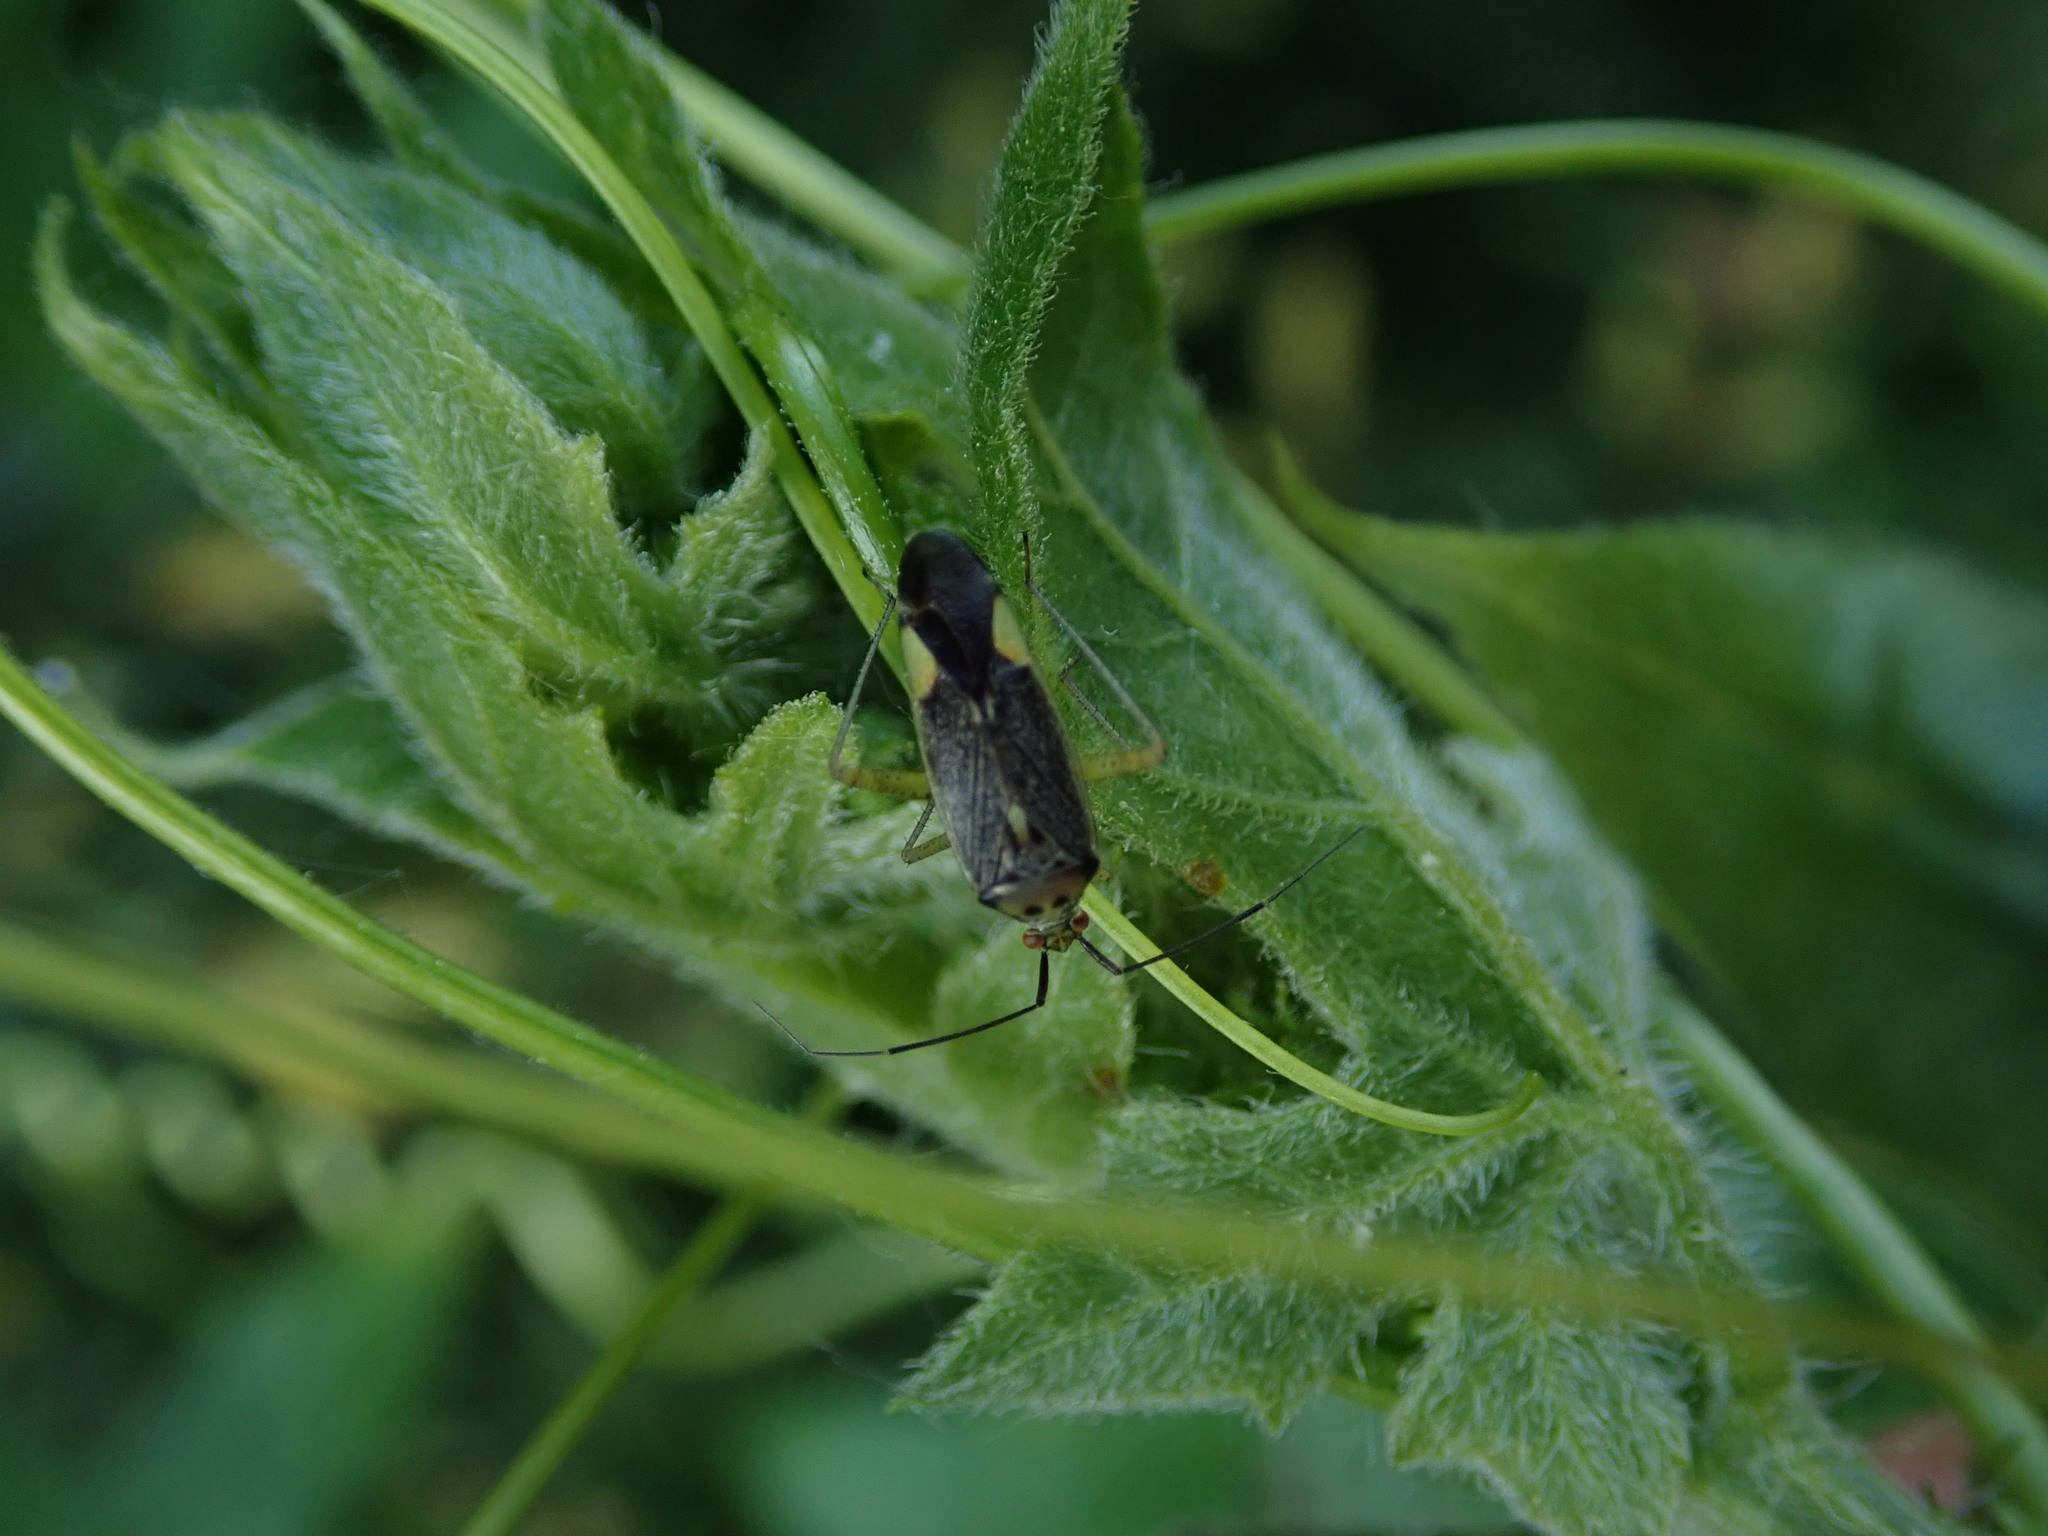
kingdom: Animalia
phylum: Arthropoda
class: Insecta
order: Hemiptera
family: Miridae
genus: Closterotomus
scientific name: Closterotomus trivialis
